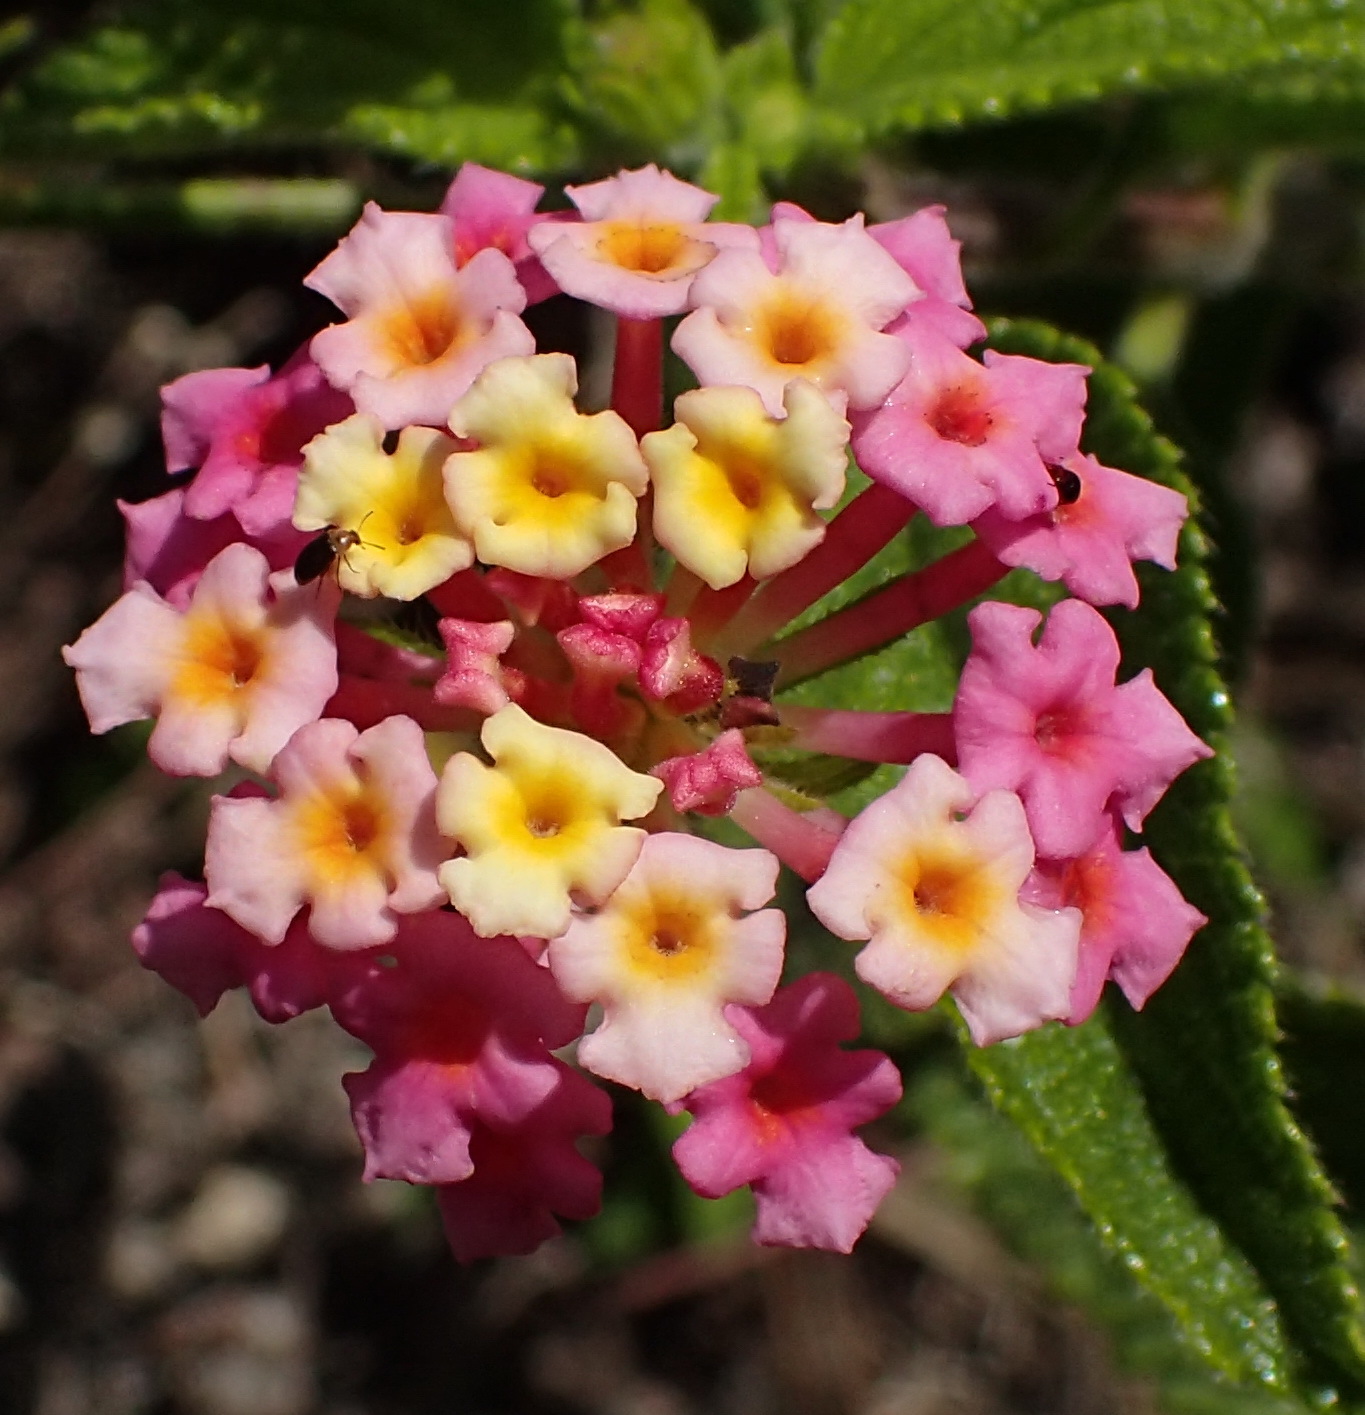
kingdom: Plantae
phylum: Tracheophyta
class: Magnoliopsida
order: Lamiales
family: Verbenaceae
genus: Lantana
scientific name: Lantana camara
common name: Lantana
